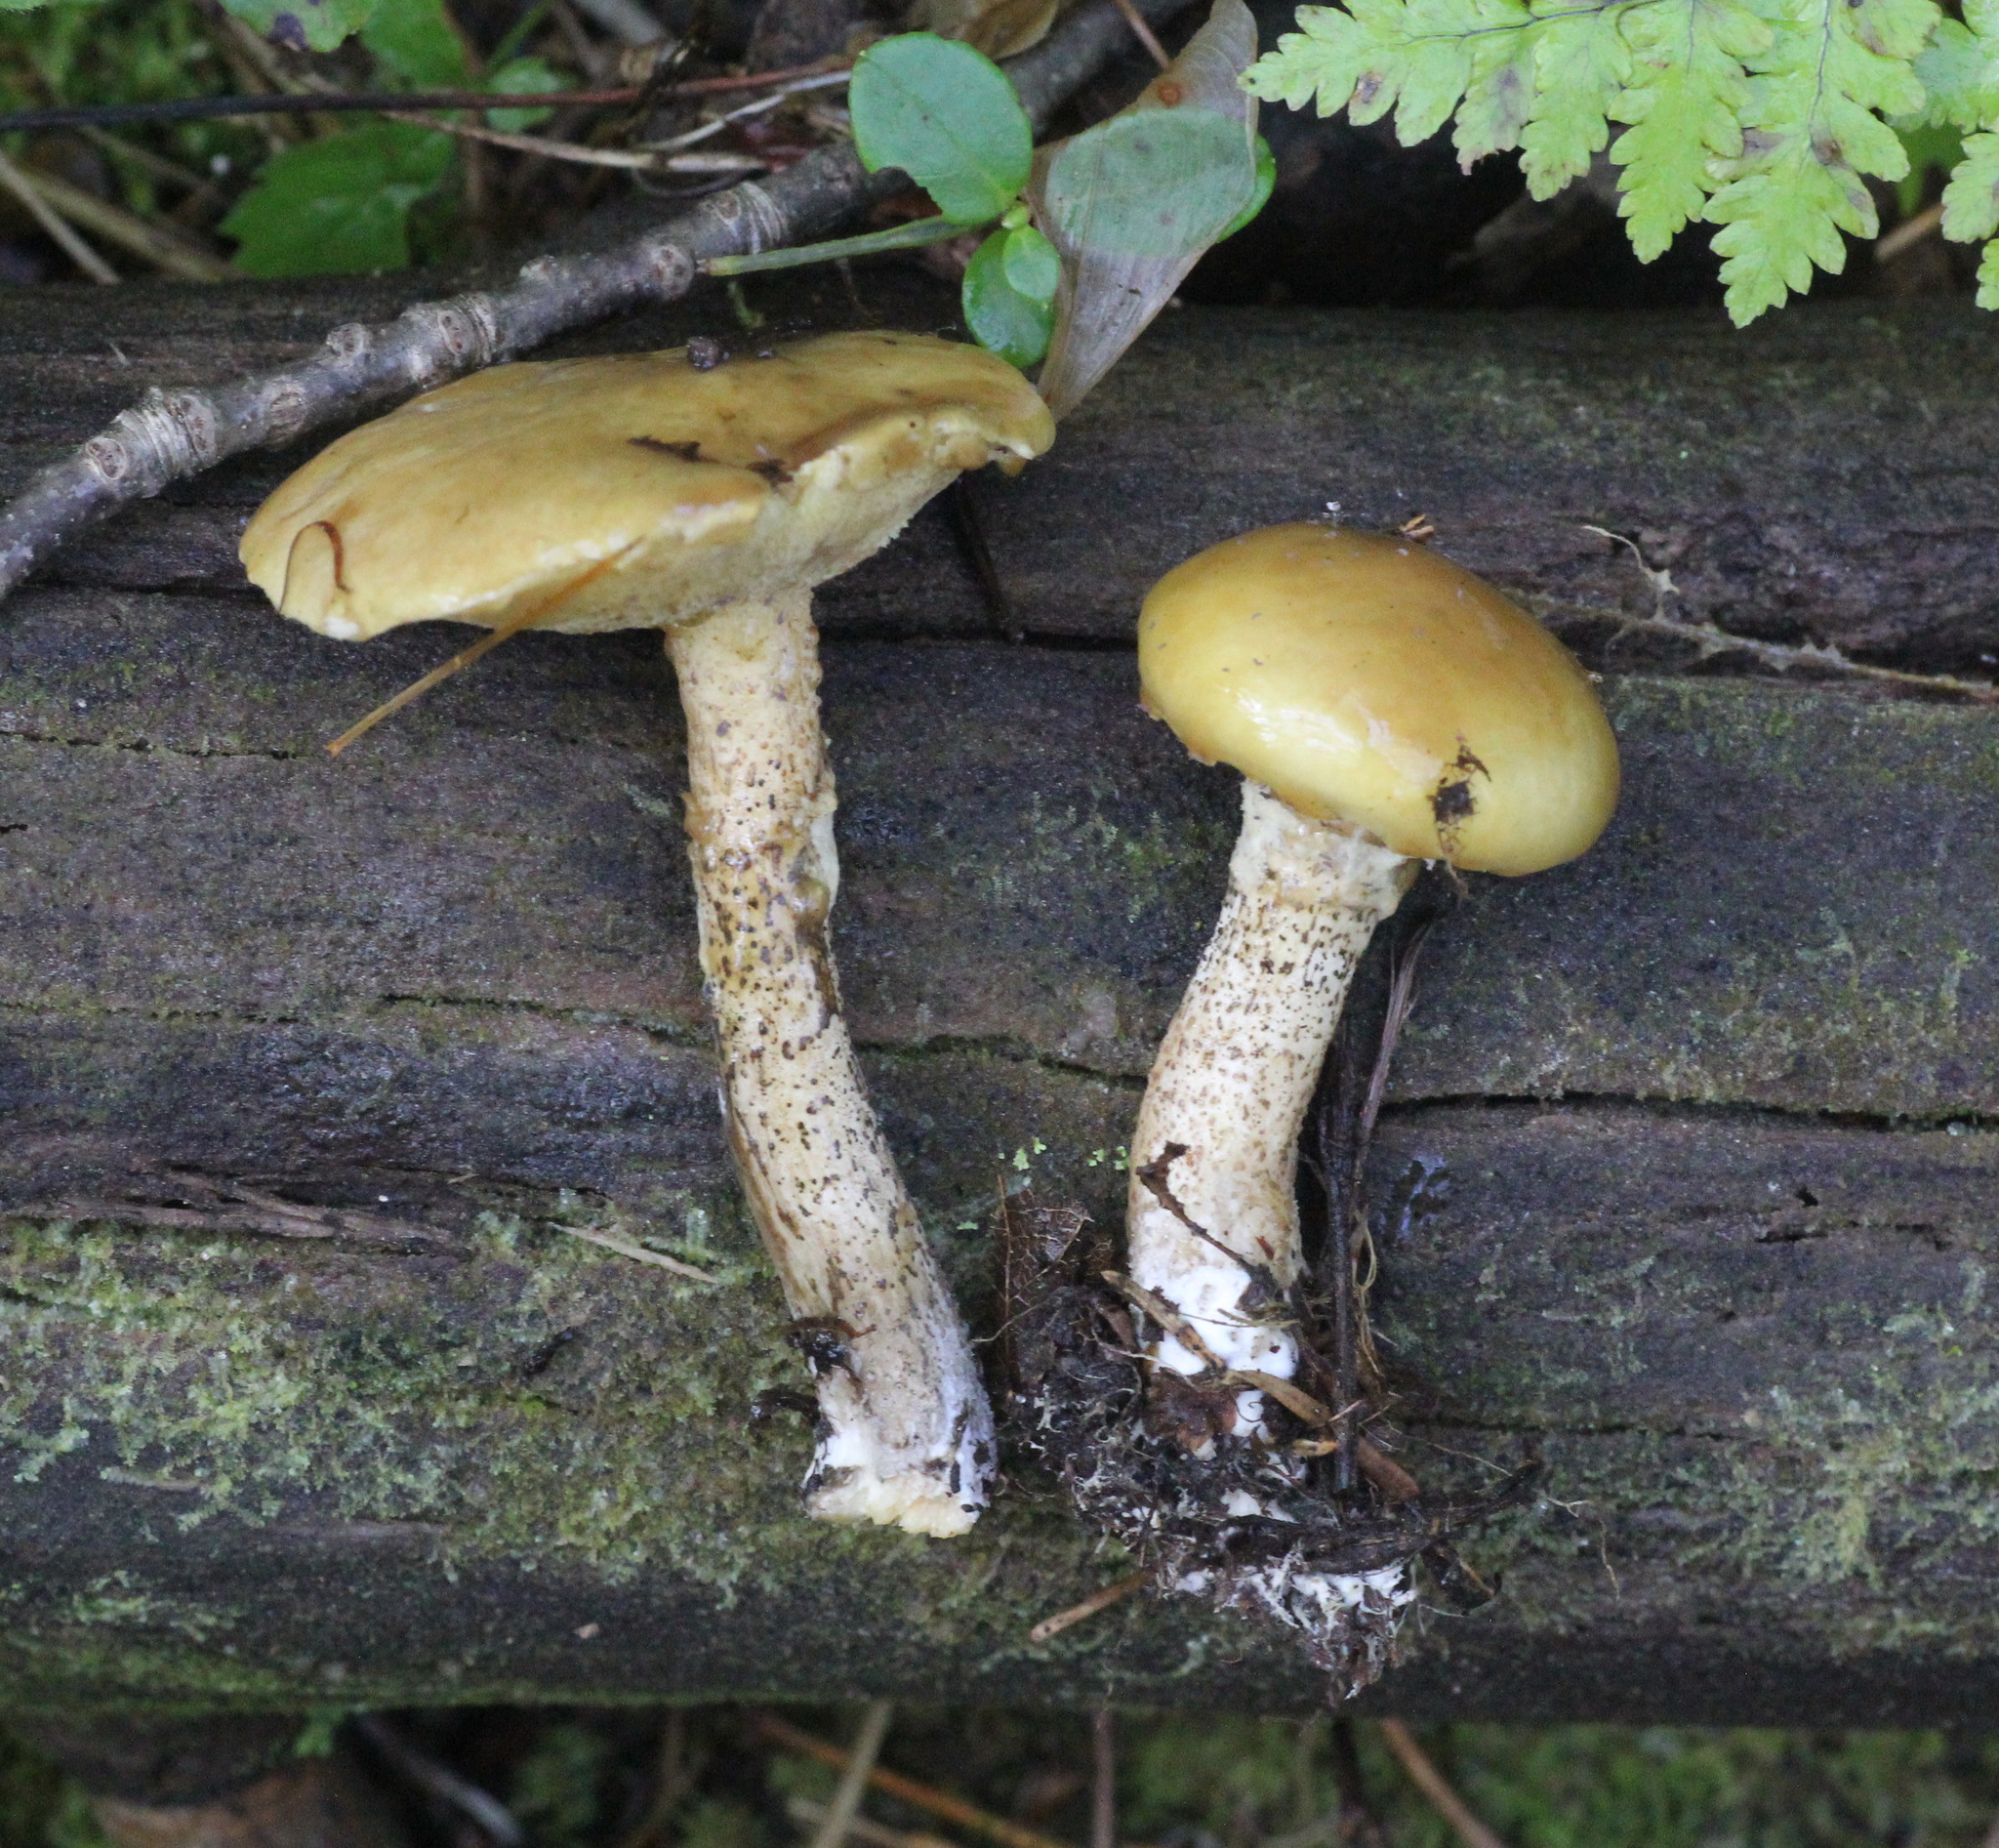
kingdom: Fungi
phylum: Basidiomycota
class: Agaricomycetes
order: Boletales
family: Suillaceae
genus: Suillus
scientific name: Suillus acidus
